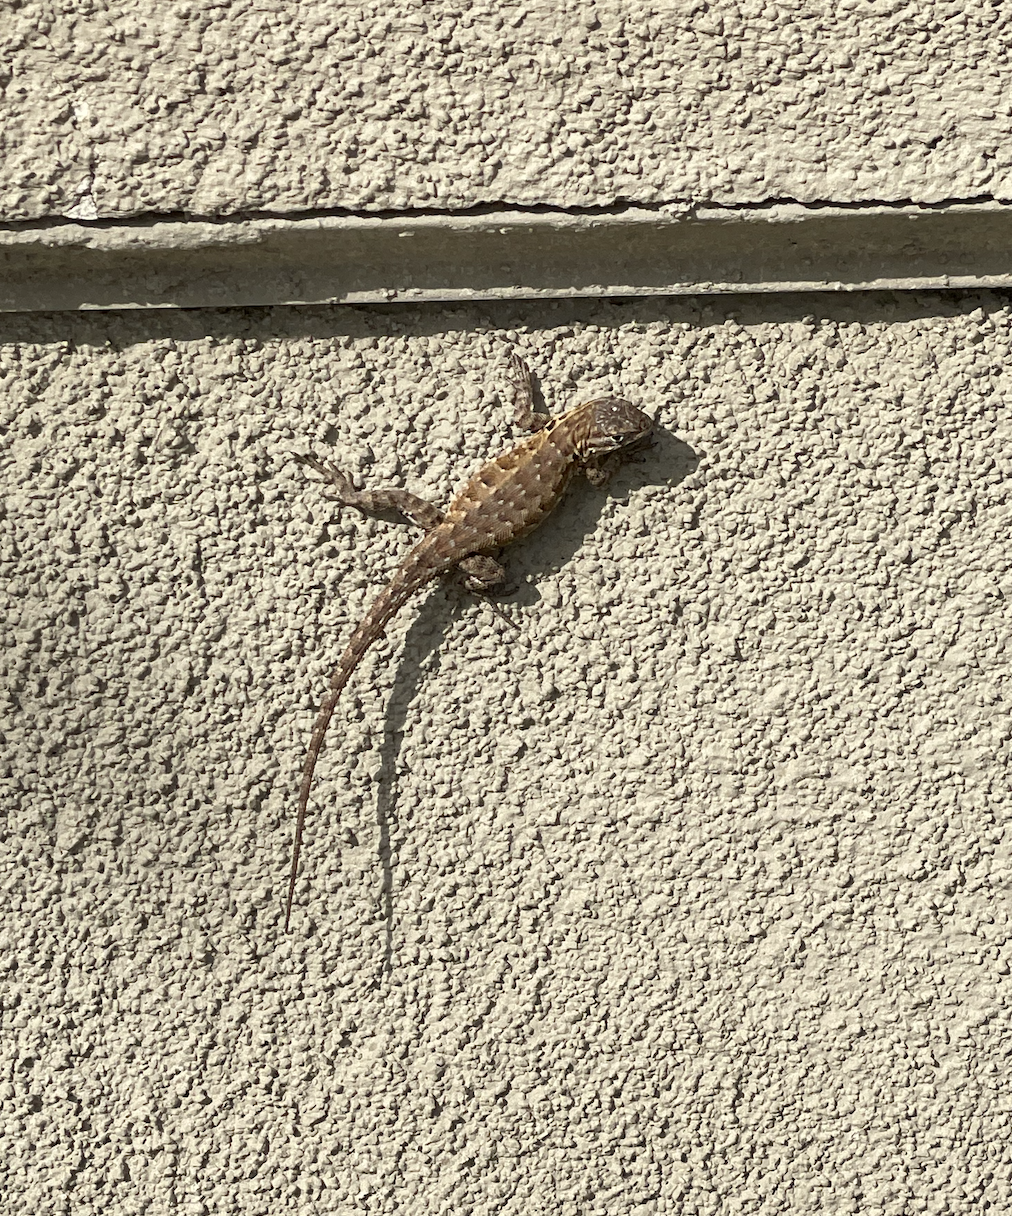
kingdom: Animalia
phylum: Chordata
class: Squamata
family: Phrynosomatidae
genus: Sceloporus
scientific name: Sceloporus occidentalis
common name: Western fence lizard
